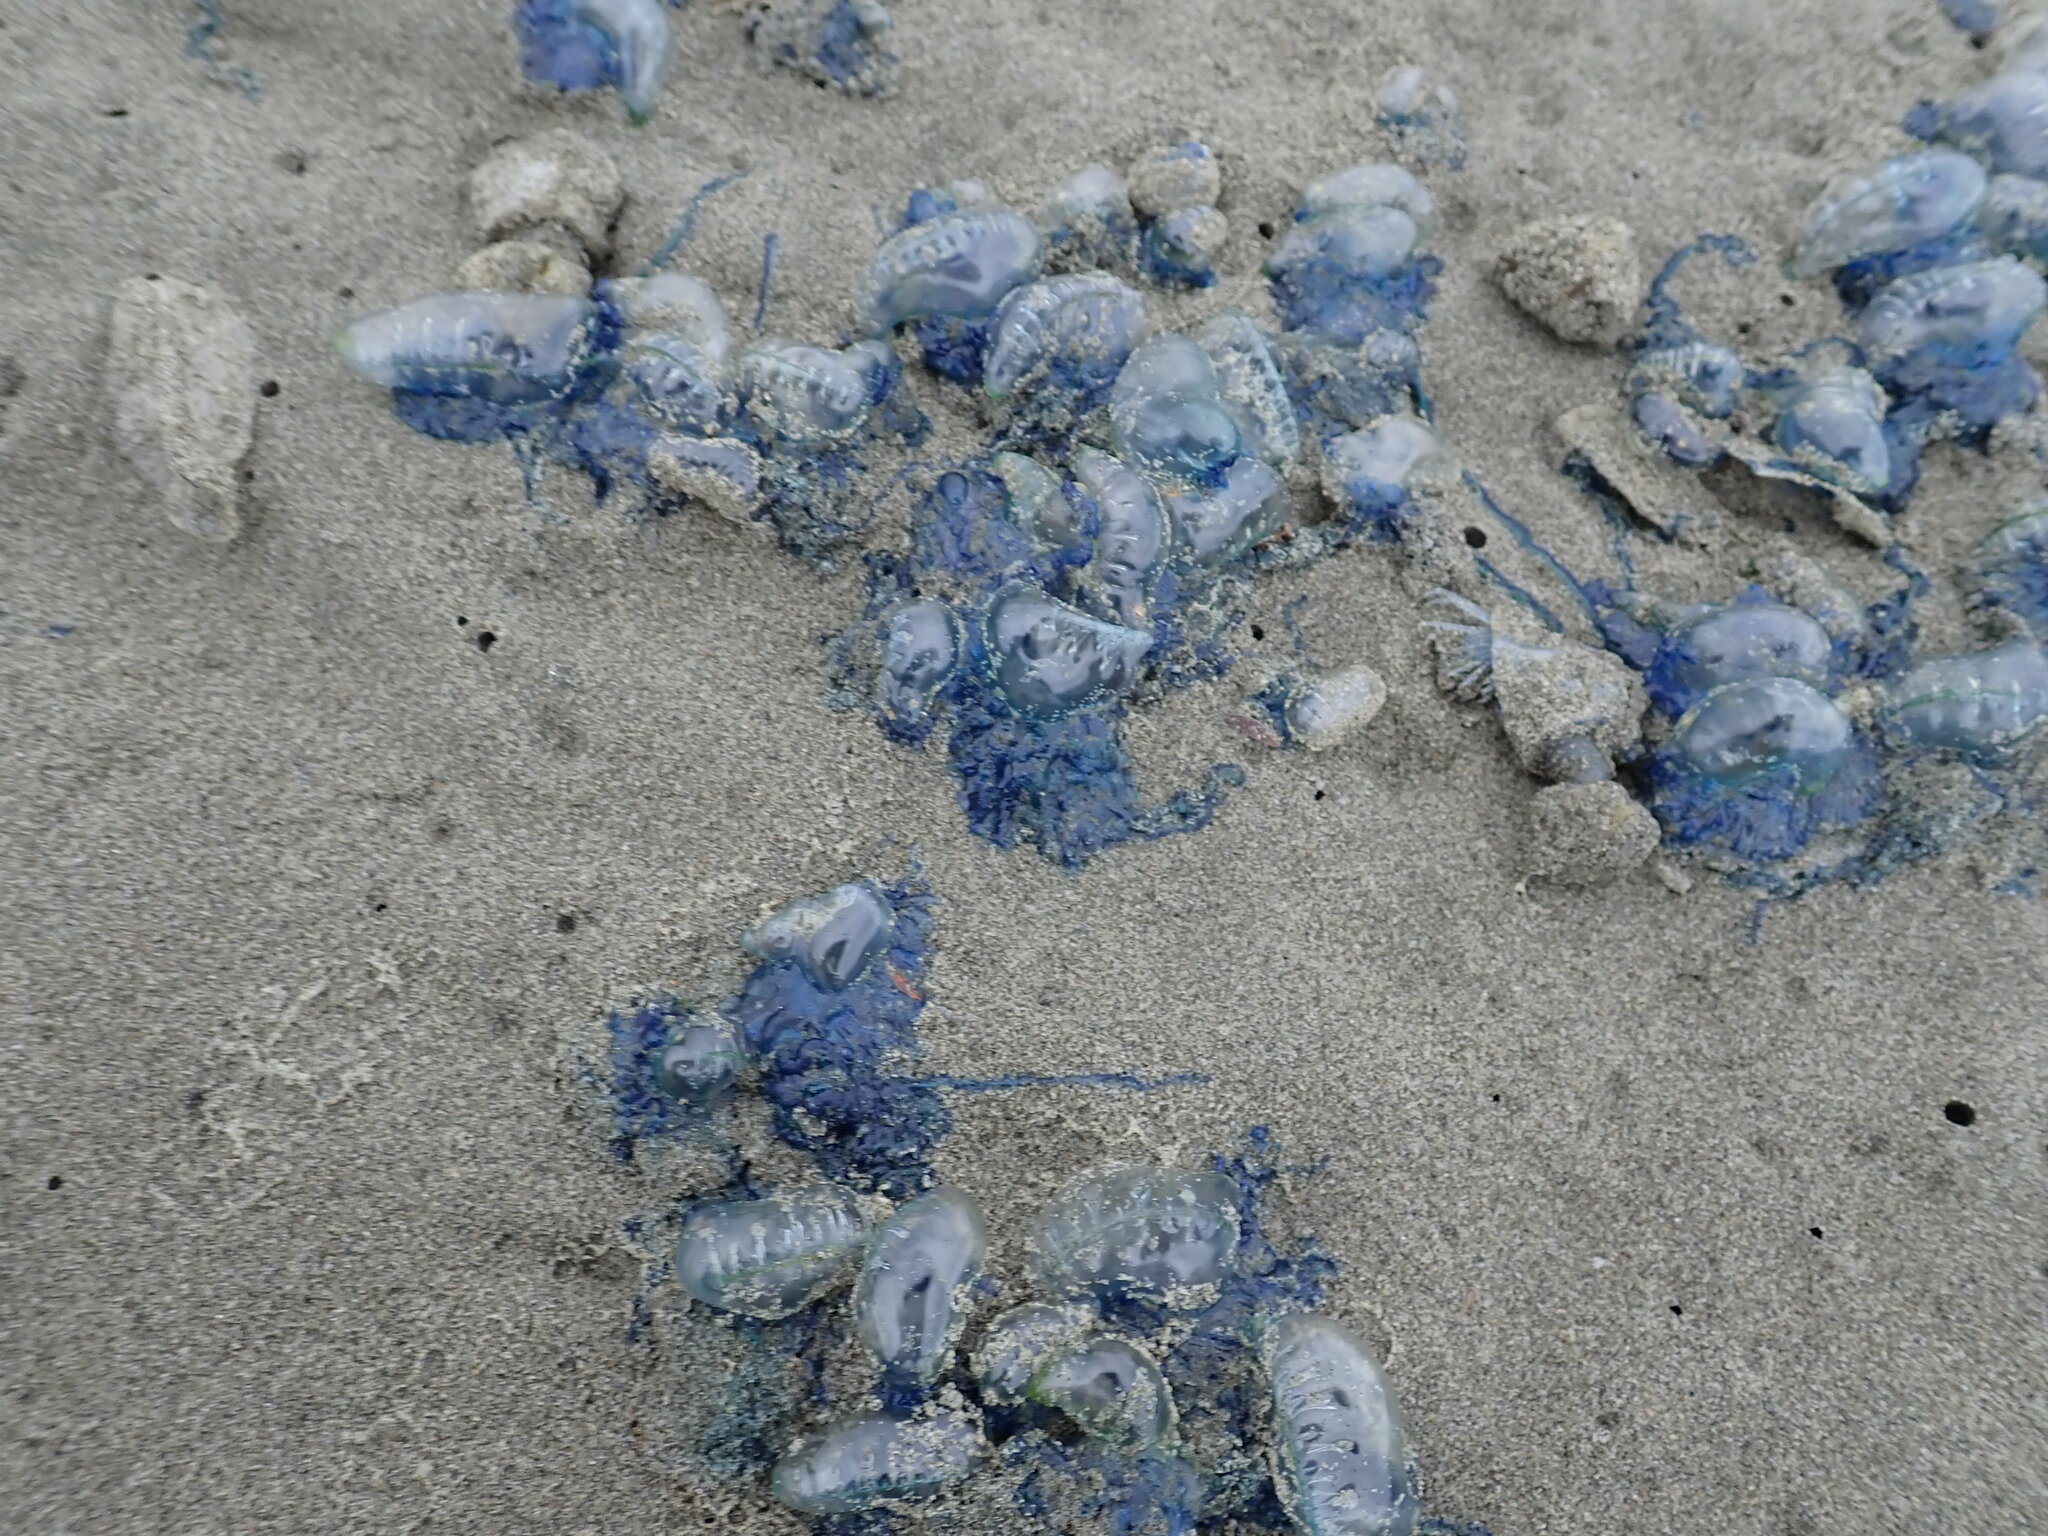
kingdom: Animalia
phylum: Cnidaria
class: Hydrozoa
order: Siphonophorae
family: Physaliidae
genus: Physalia
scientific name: Physalia physalis
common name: Portuguese man-of-war
